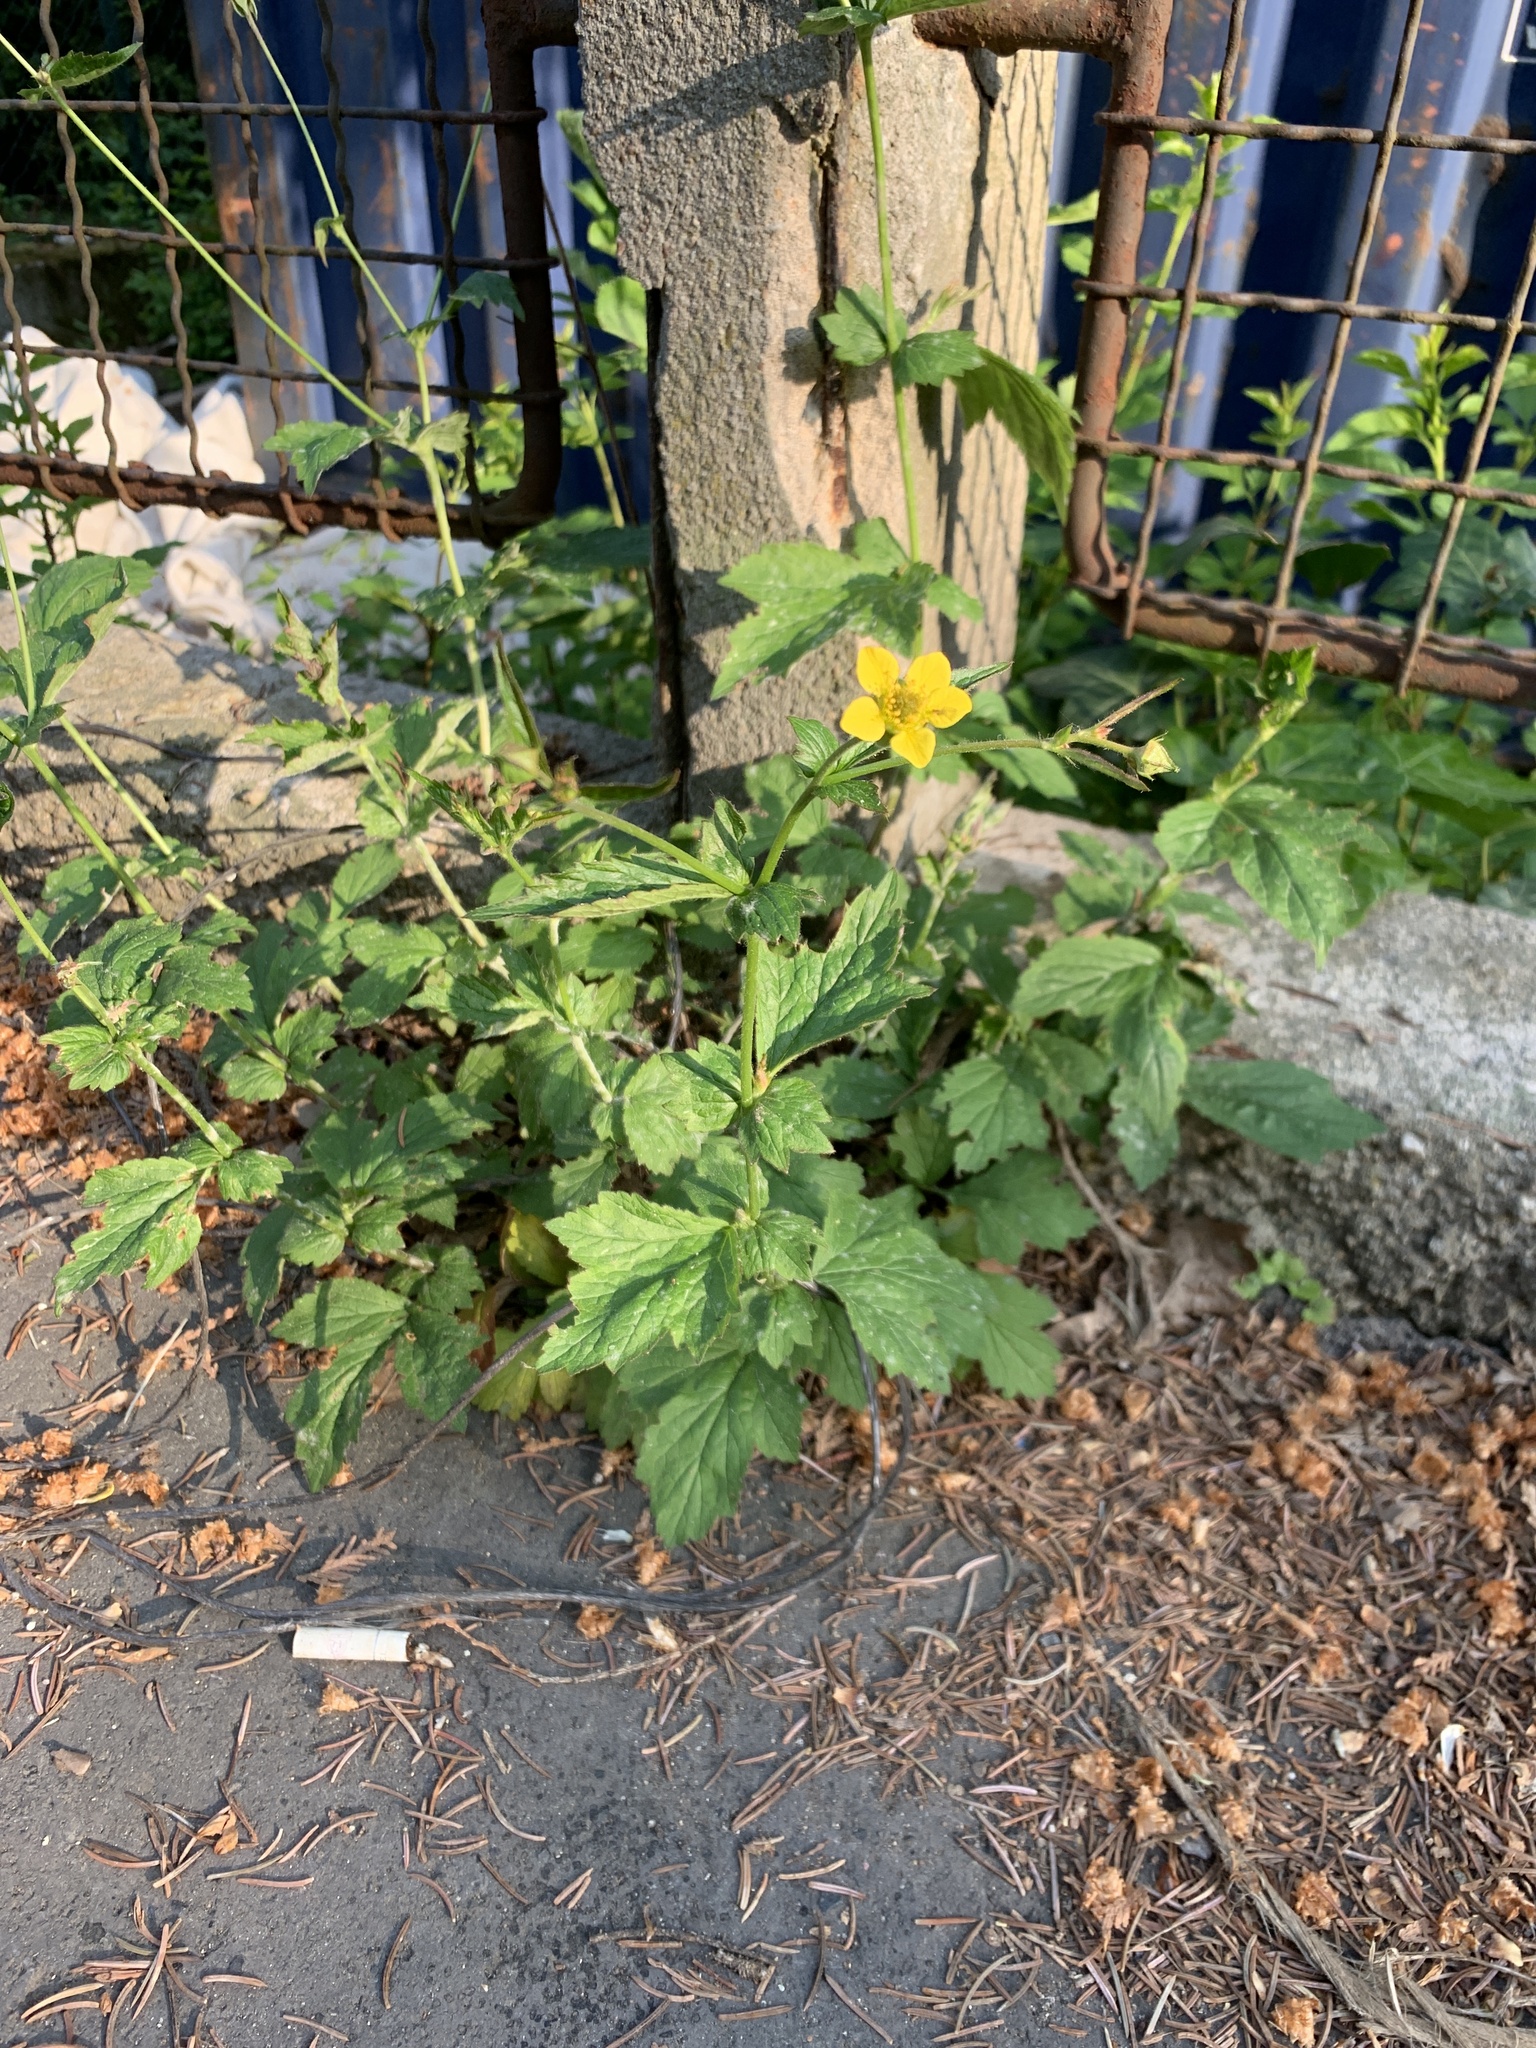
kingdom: Plantae
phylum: Tracheophyta
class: Magnoliopsida
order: Rosales
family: Rosaceae
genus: Geum
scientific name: Geum urbanum
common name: Wood avens
